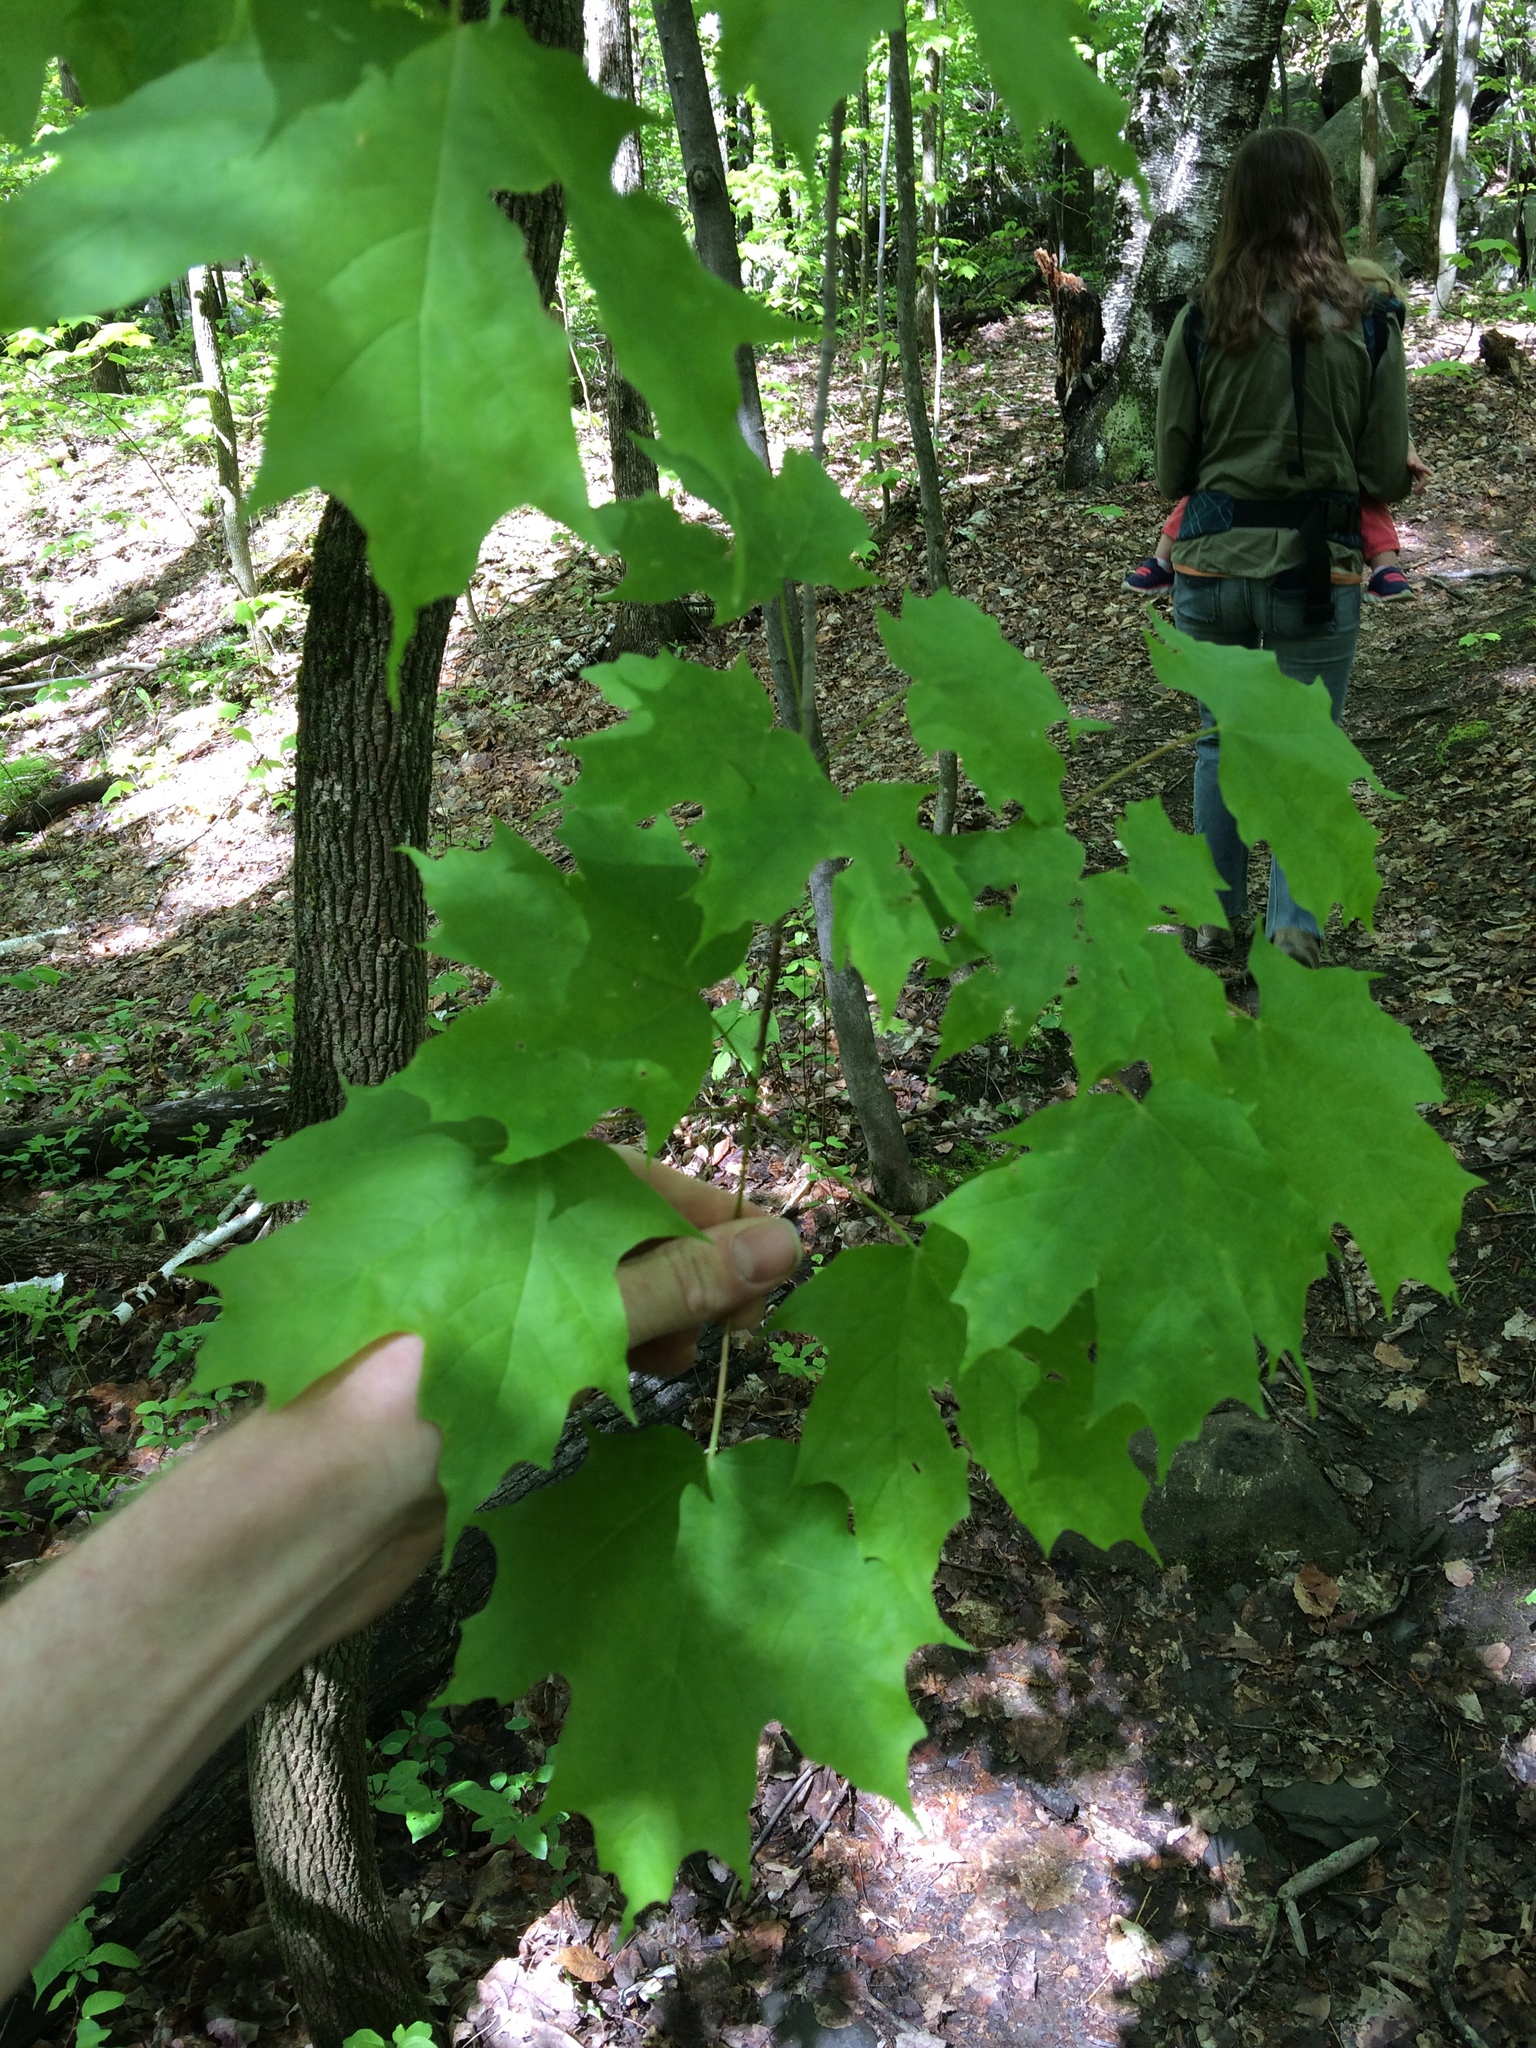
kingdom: Plantae
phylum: Tracheophyta
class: Magnoliopsida
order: Sapindales
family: Sapindaceae
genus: Acer
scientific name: Acer saccharum
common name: Sugar maple
